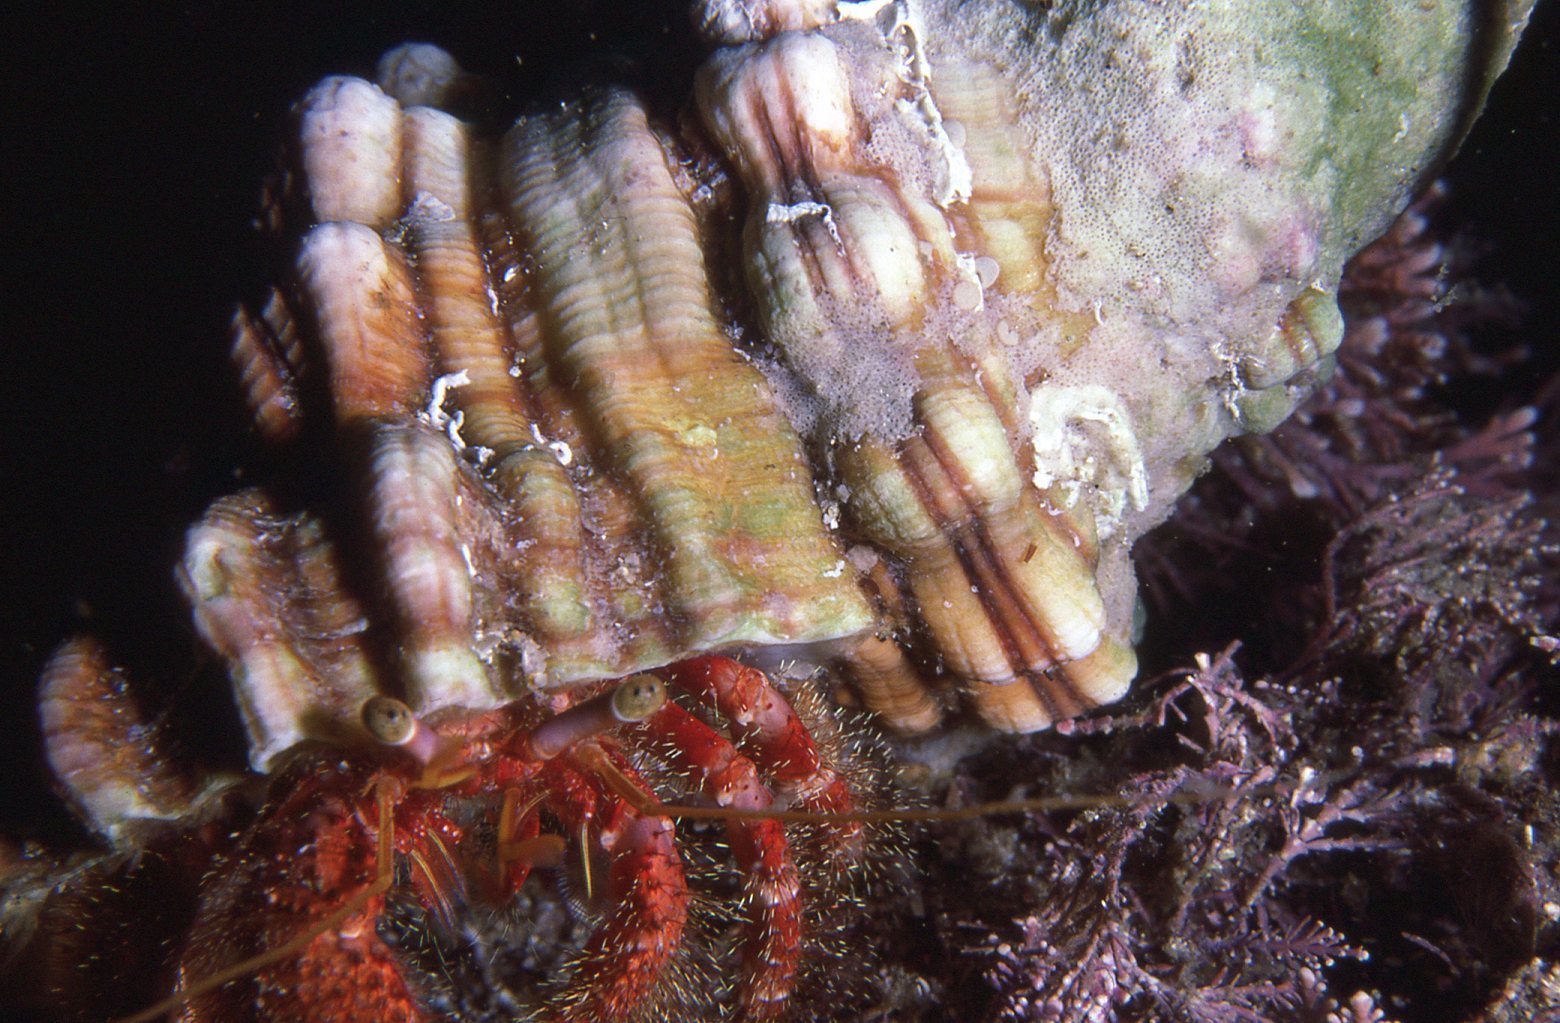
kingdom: Animalia
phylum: Arthropoda
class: Malacostraca
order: Decapoda
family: Diogenidae
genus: Dardanus
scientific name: Dardanus crassimanus
